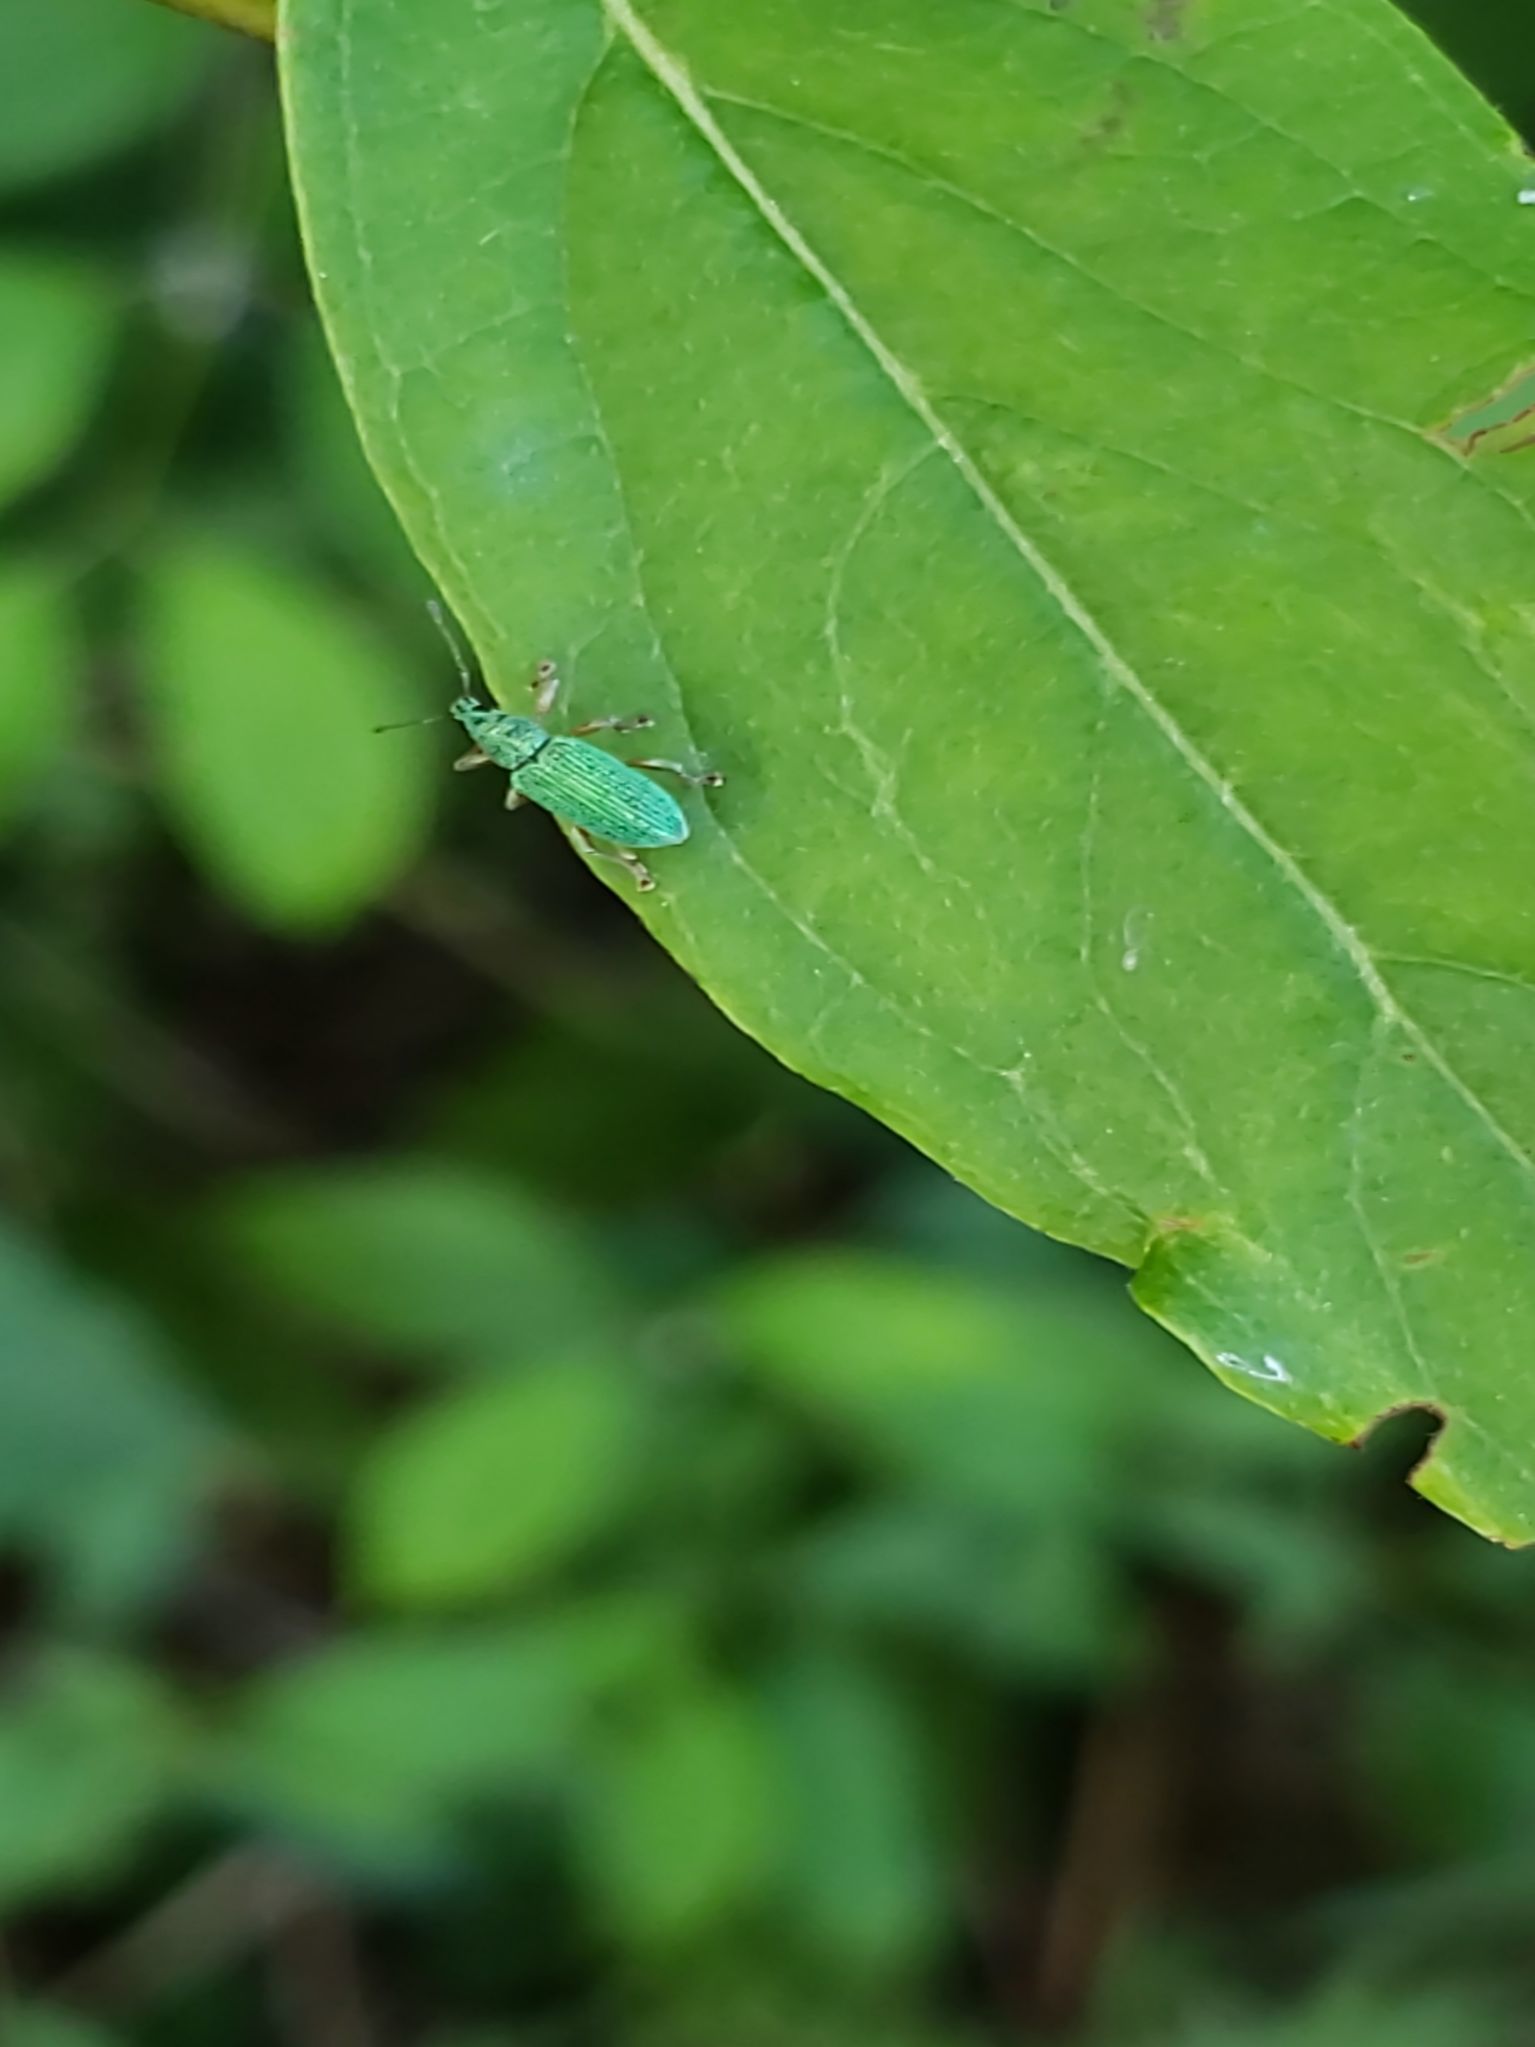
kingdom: Animalia
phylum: Arthropoda
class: Insecta
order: Coleoptera
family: Curculionidae
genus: Polydrusus
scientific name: Polydrusus formosus
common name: Weevil
